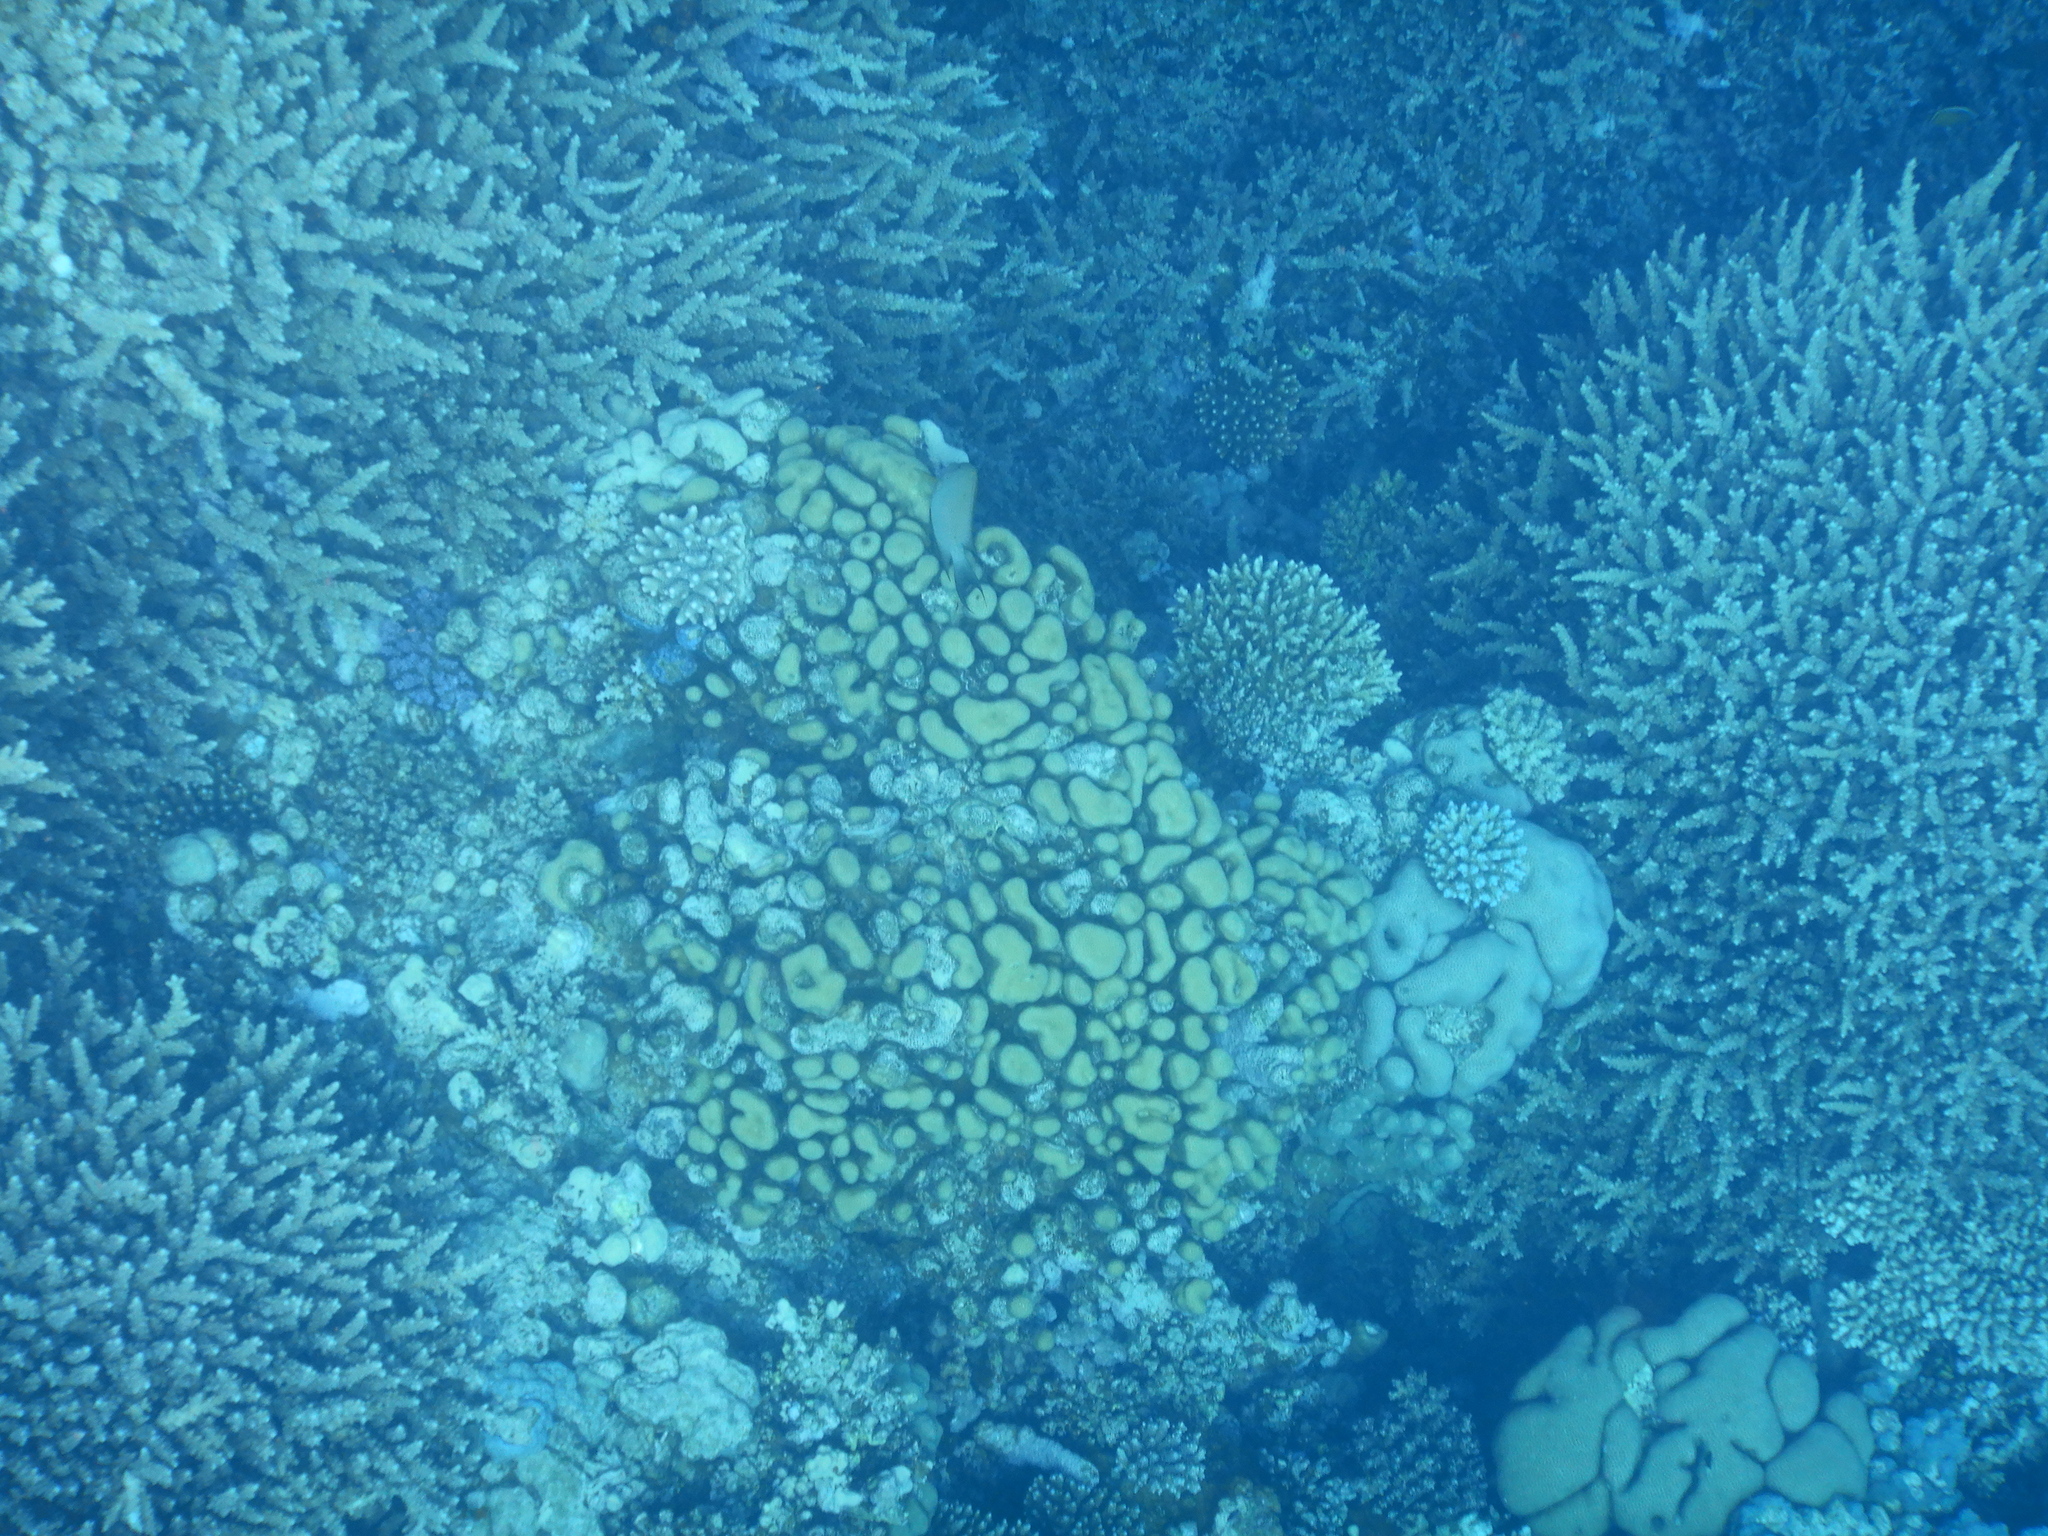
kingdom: Animalia
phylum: Cnidaria
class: Anthozoa
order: Scleractinia
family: Merulinidae
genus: Goniastrea
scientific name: Goniastrea stelligera
